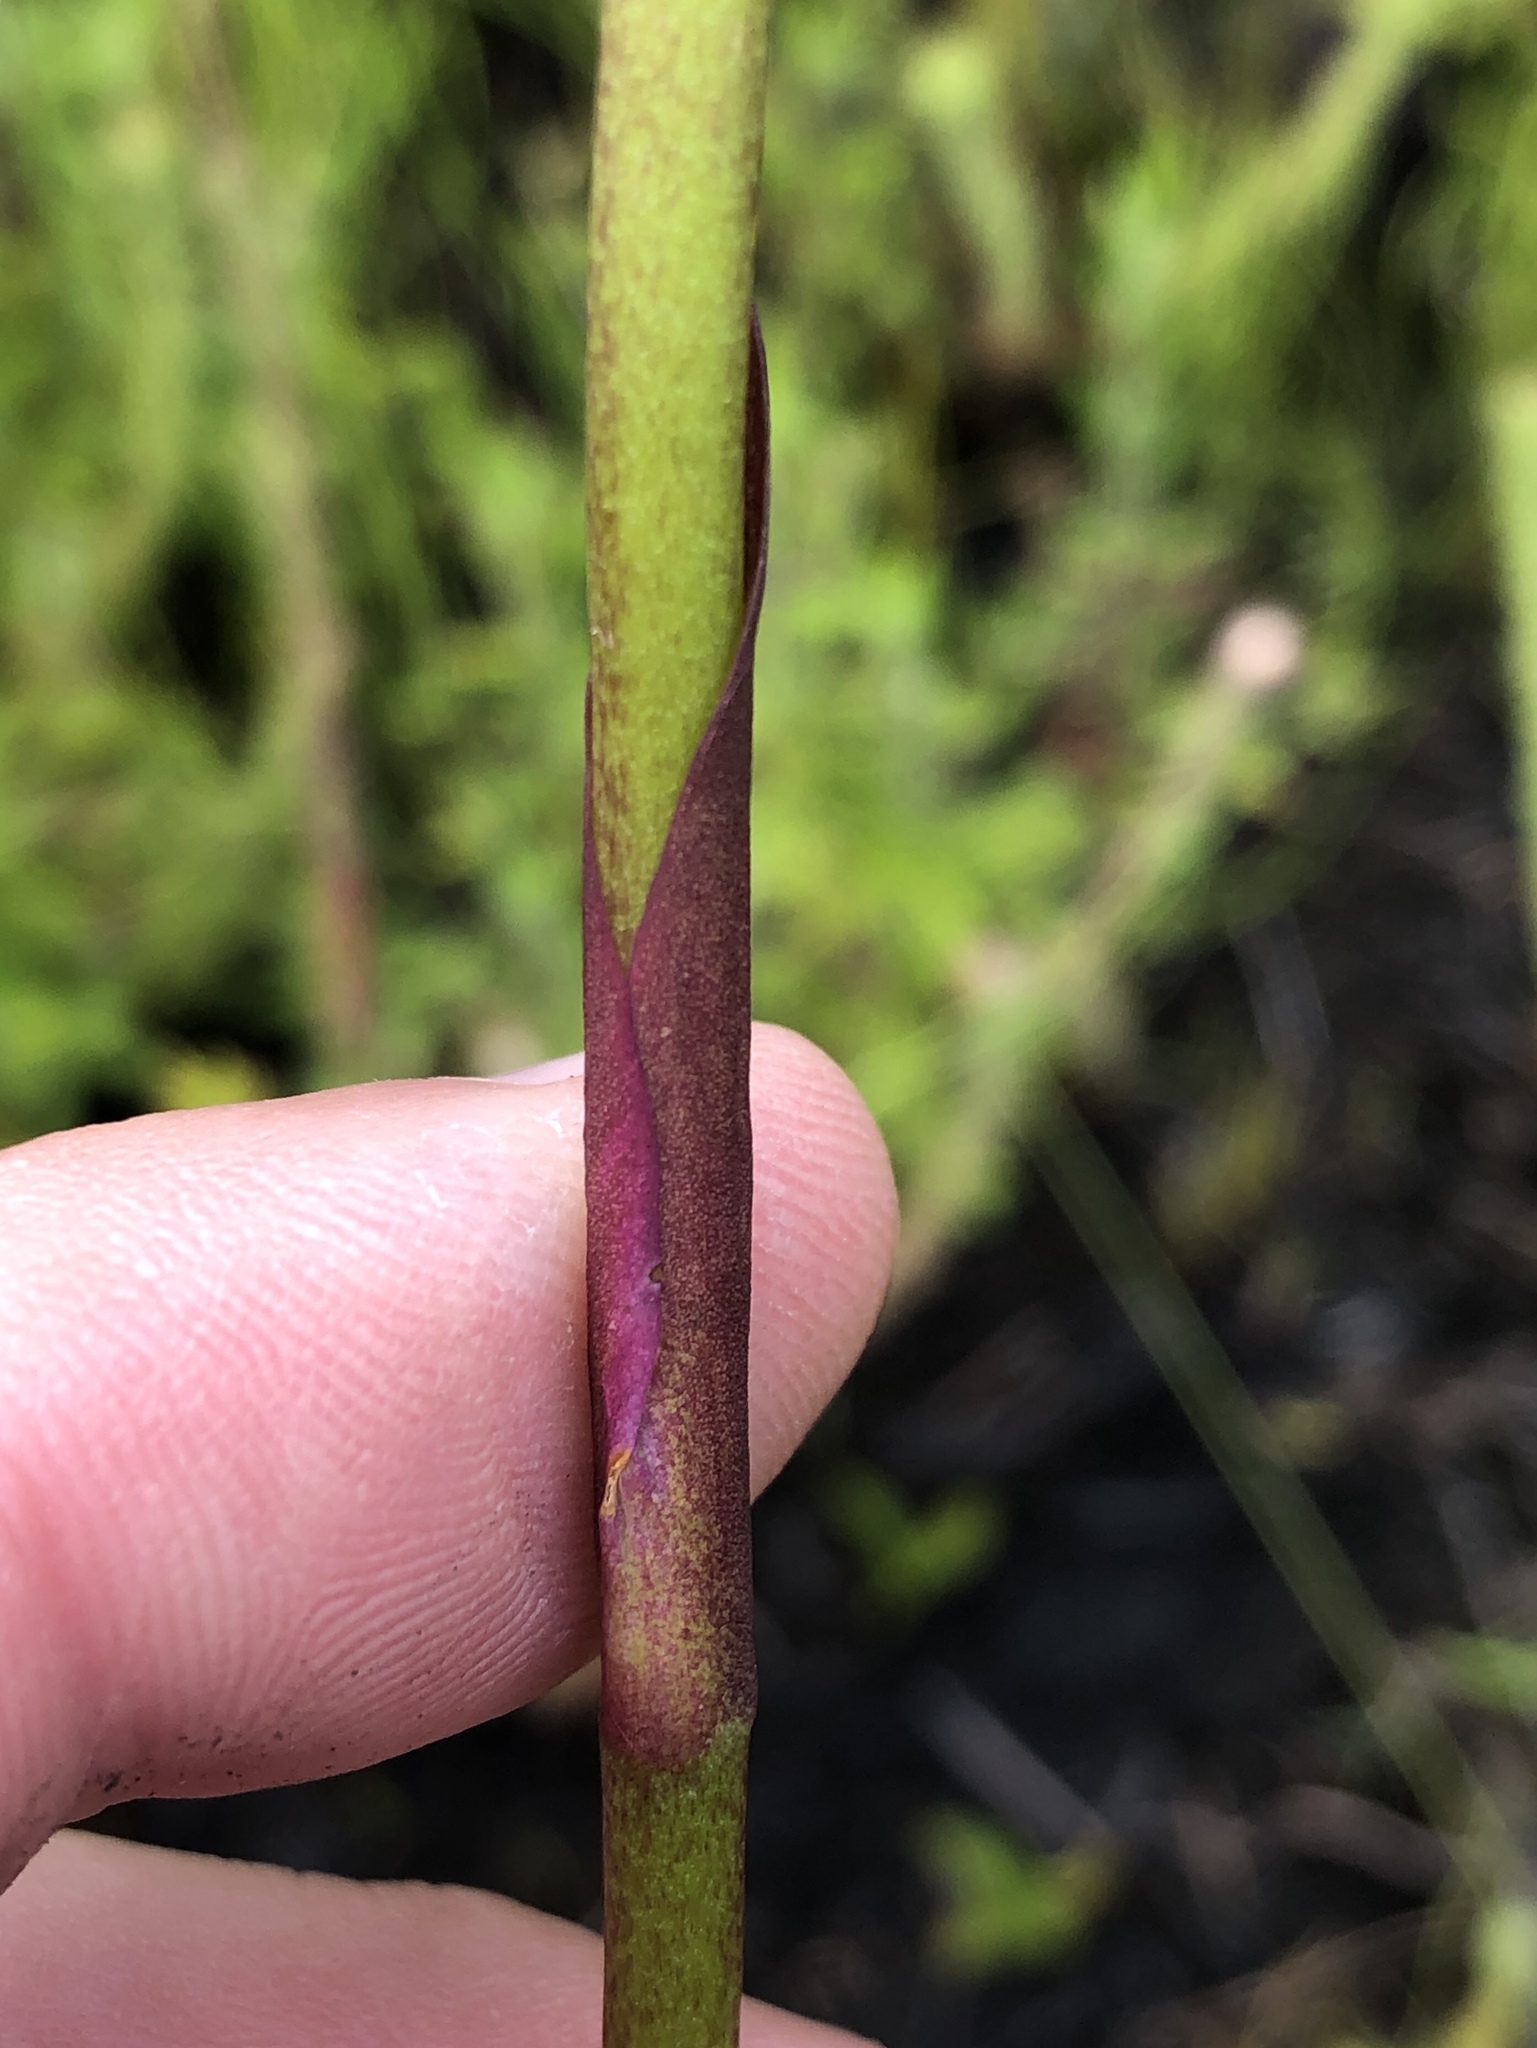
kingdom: Plantae
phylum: Tracheophyta
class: Liliopsida
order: Asparagales
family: Orchidaceae
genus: Disa
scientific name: Disa racemosa
